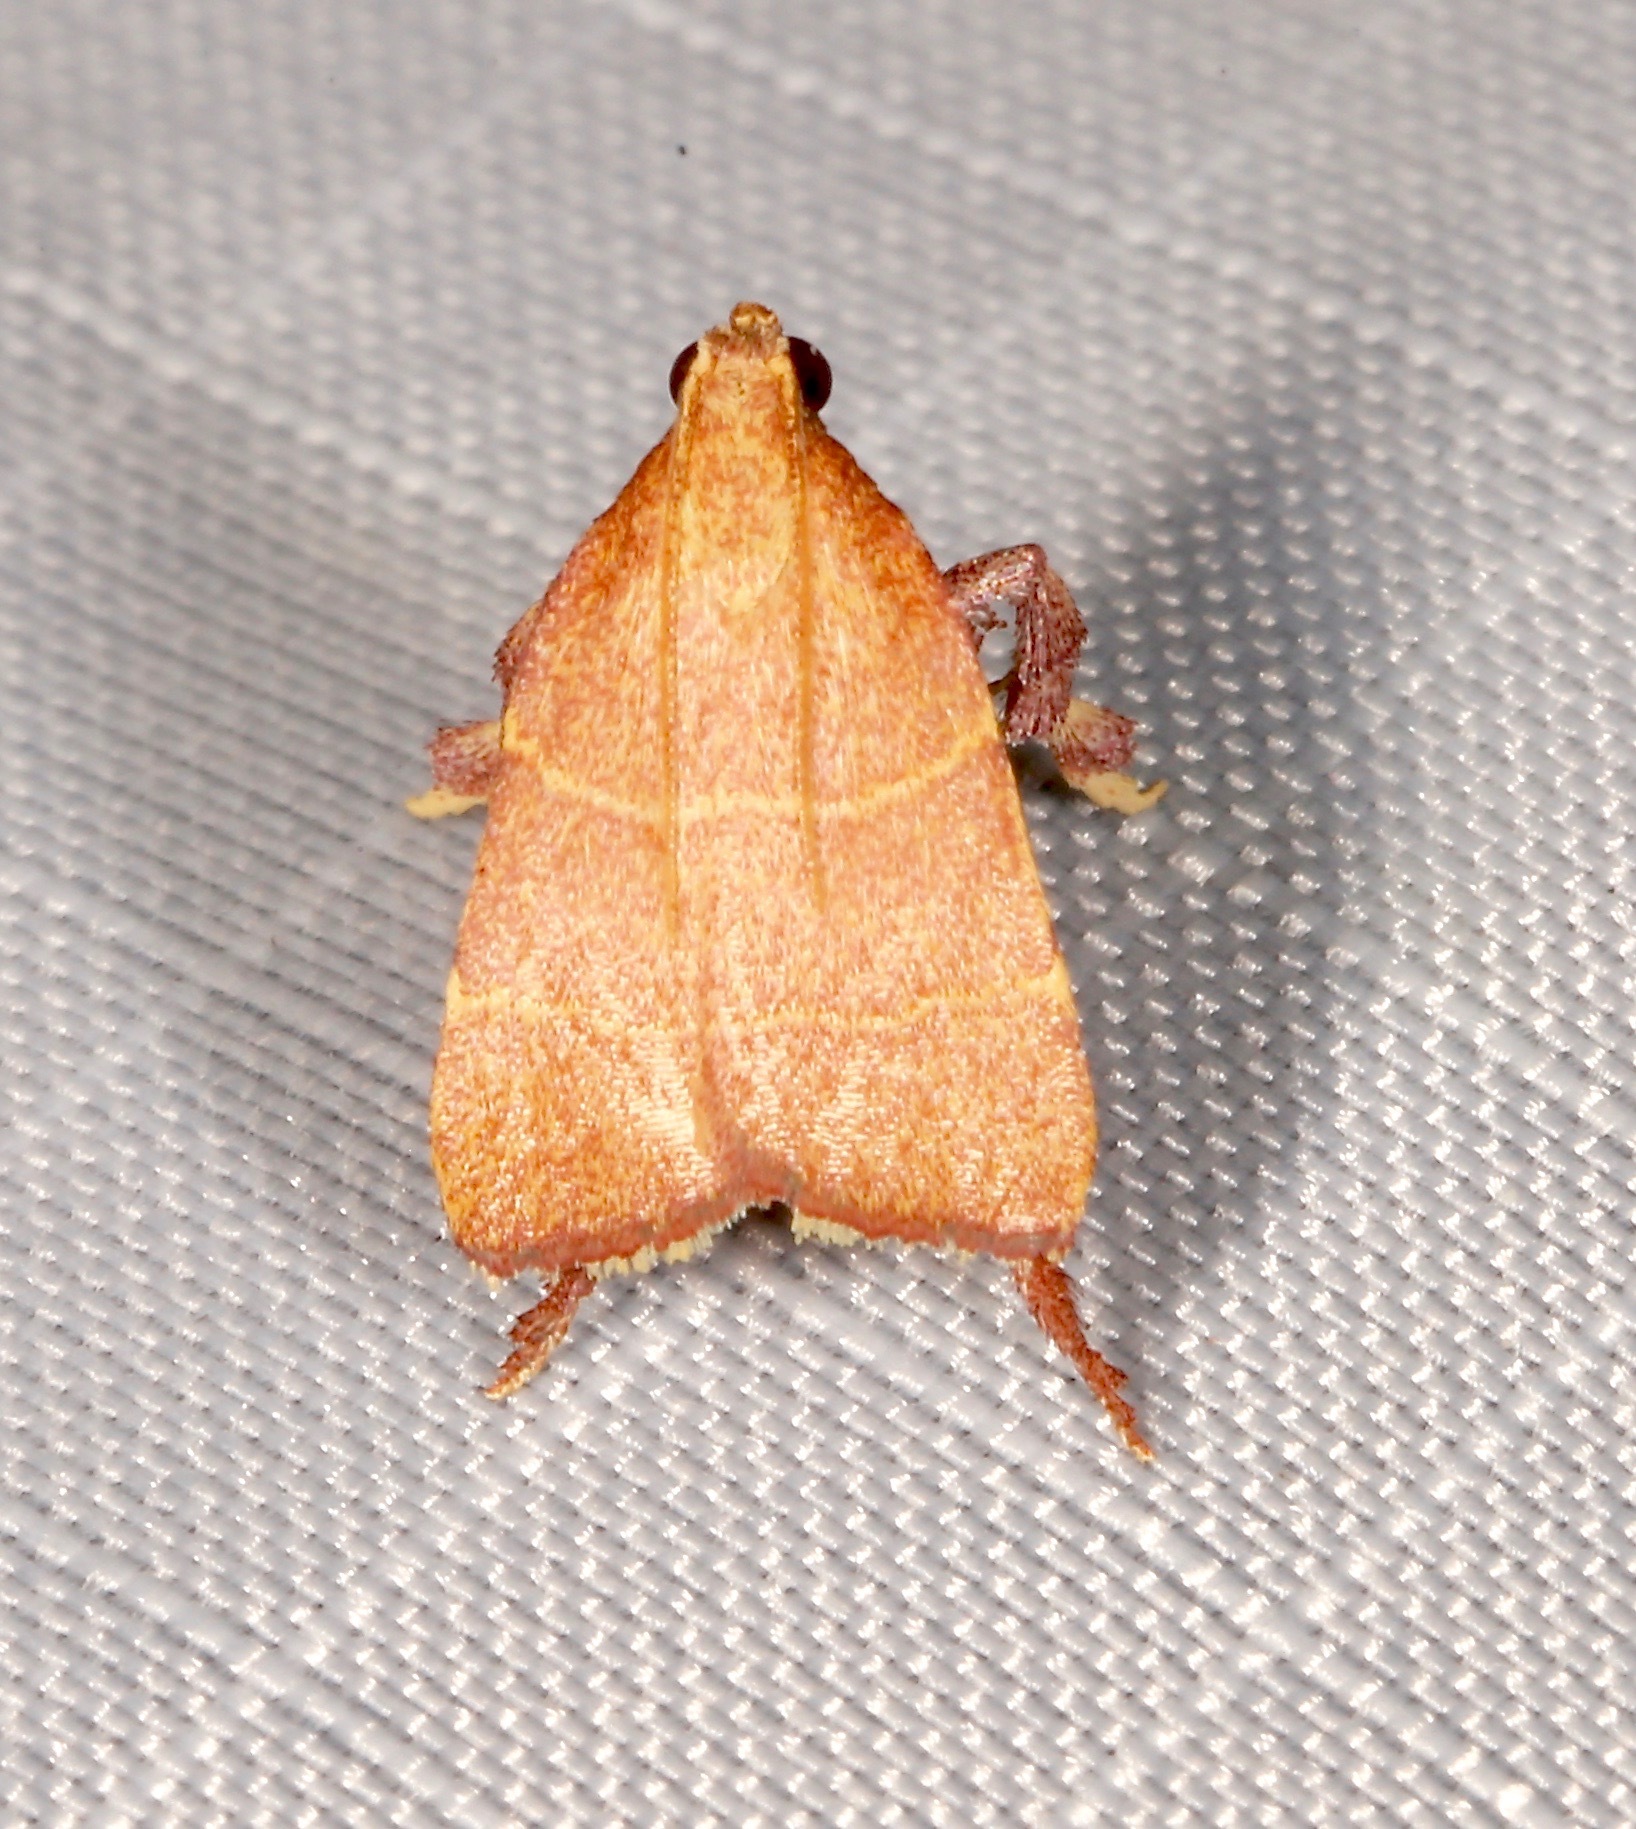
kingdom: Animalia
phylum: Arthropoda
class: Insecta
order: Lepidoptera
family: Pyralidae
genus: Parachma
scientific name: Parachma ochracealis
